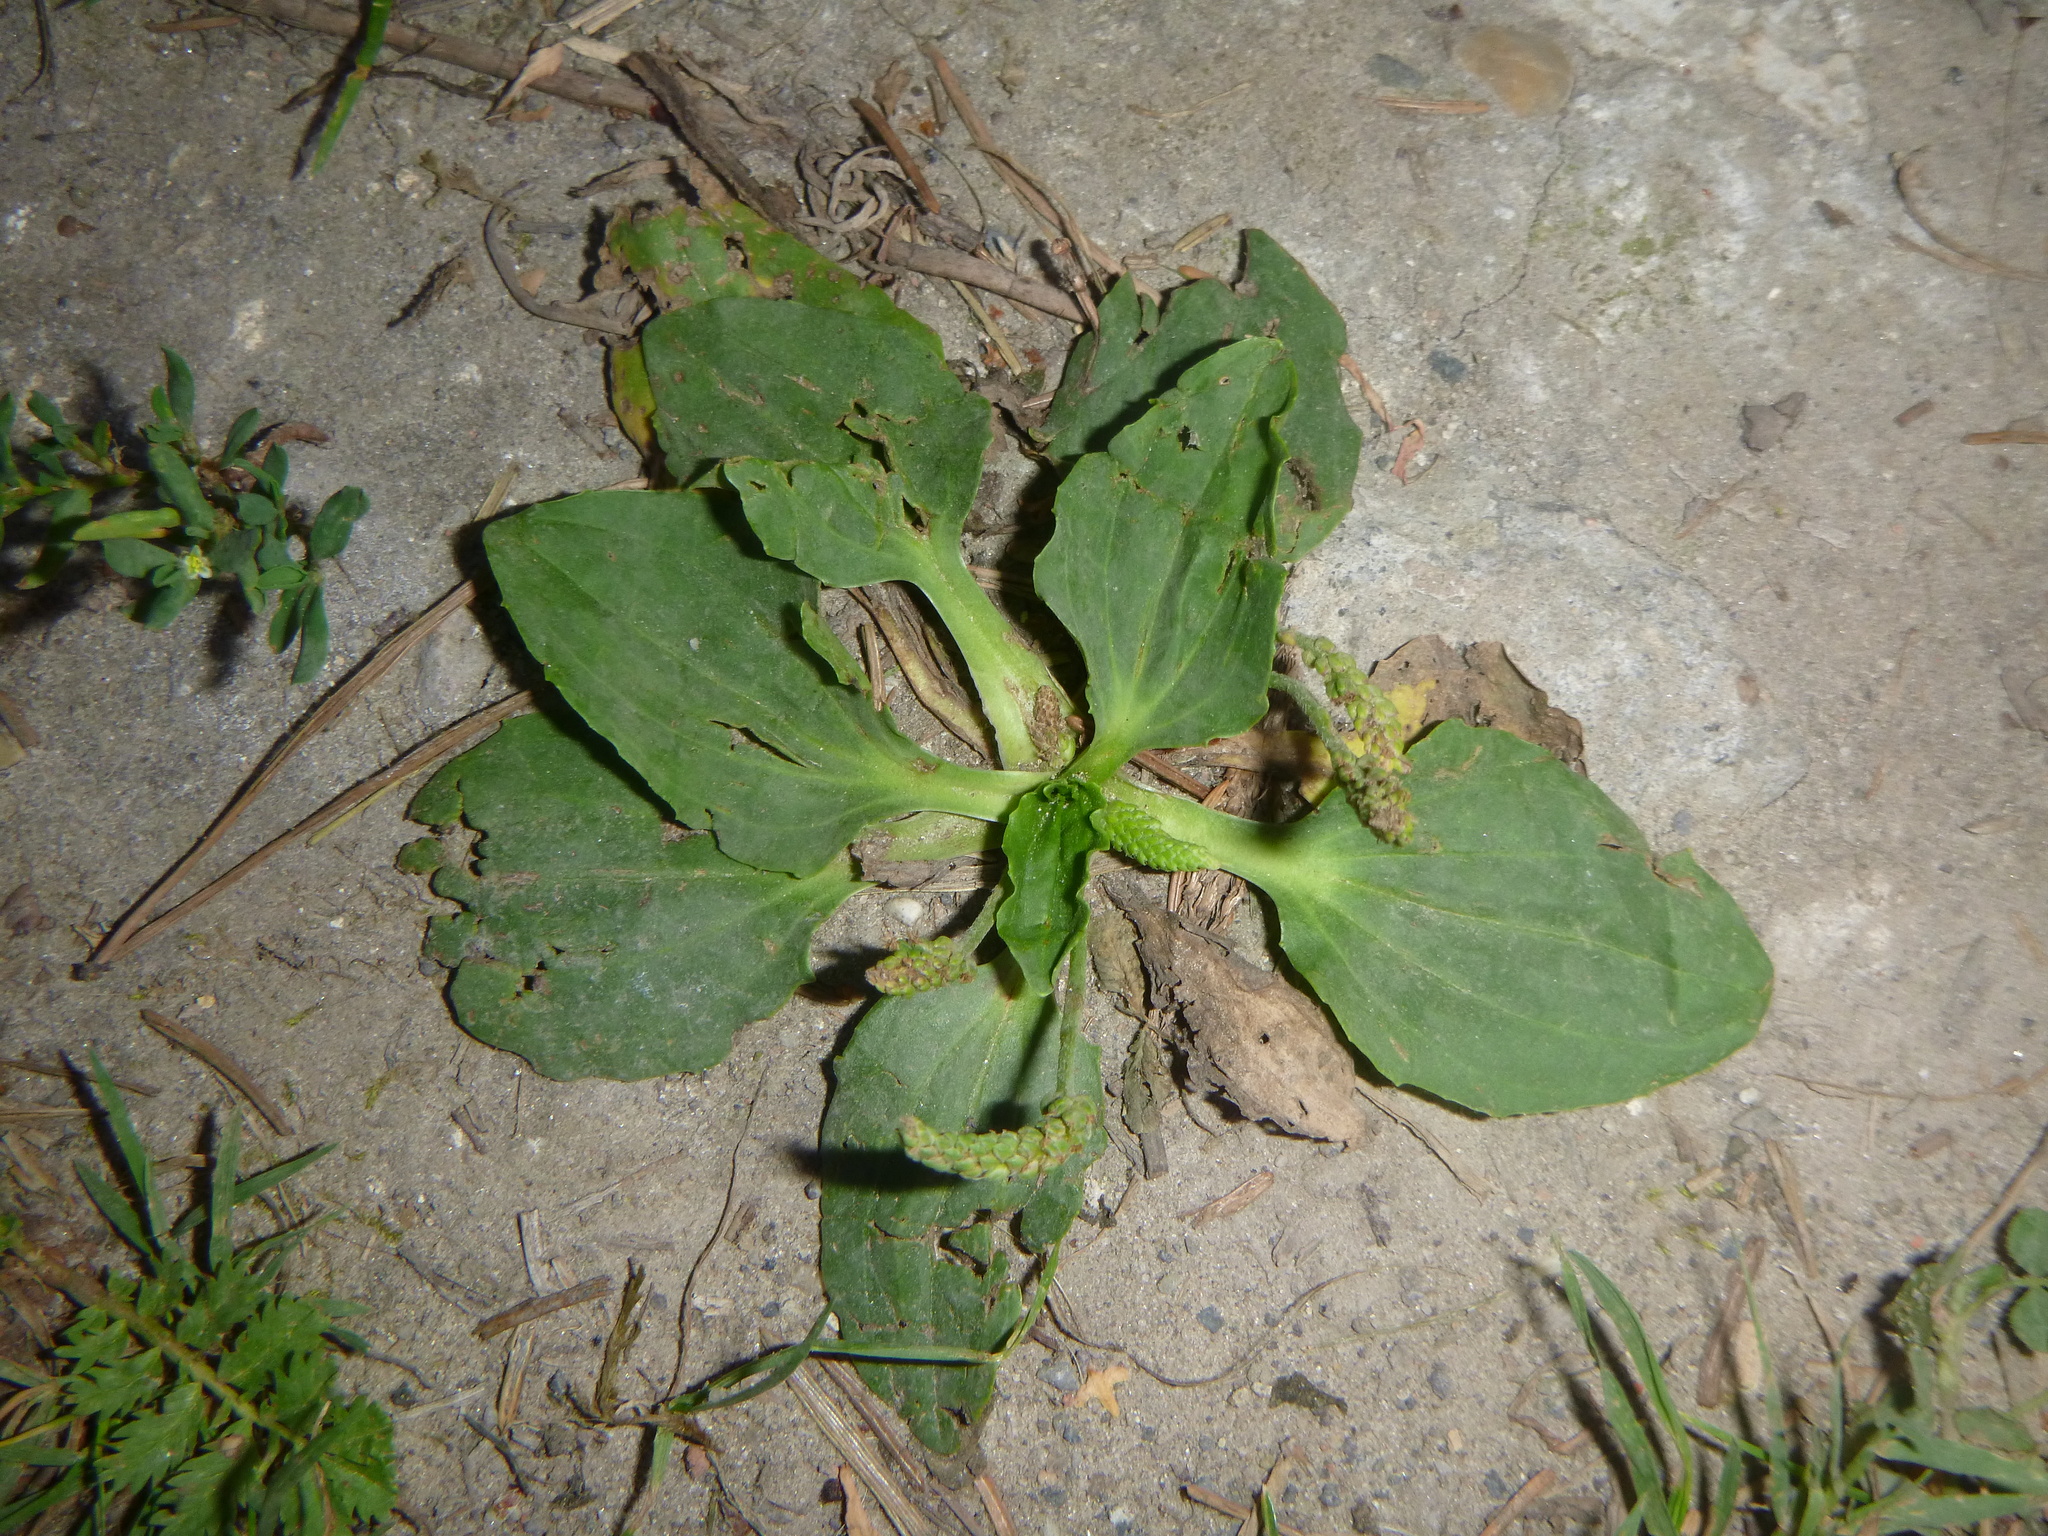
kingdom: Plantae
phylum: Tracheophyta
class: Magnoliopsida
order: Lamiales
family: Plantaginaceae
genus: Plantago
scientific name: Plantago major
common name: Common plantain
